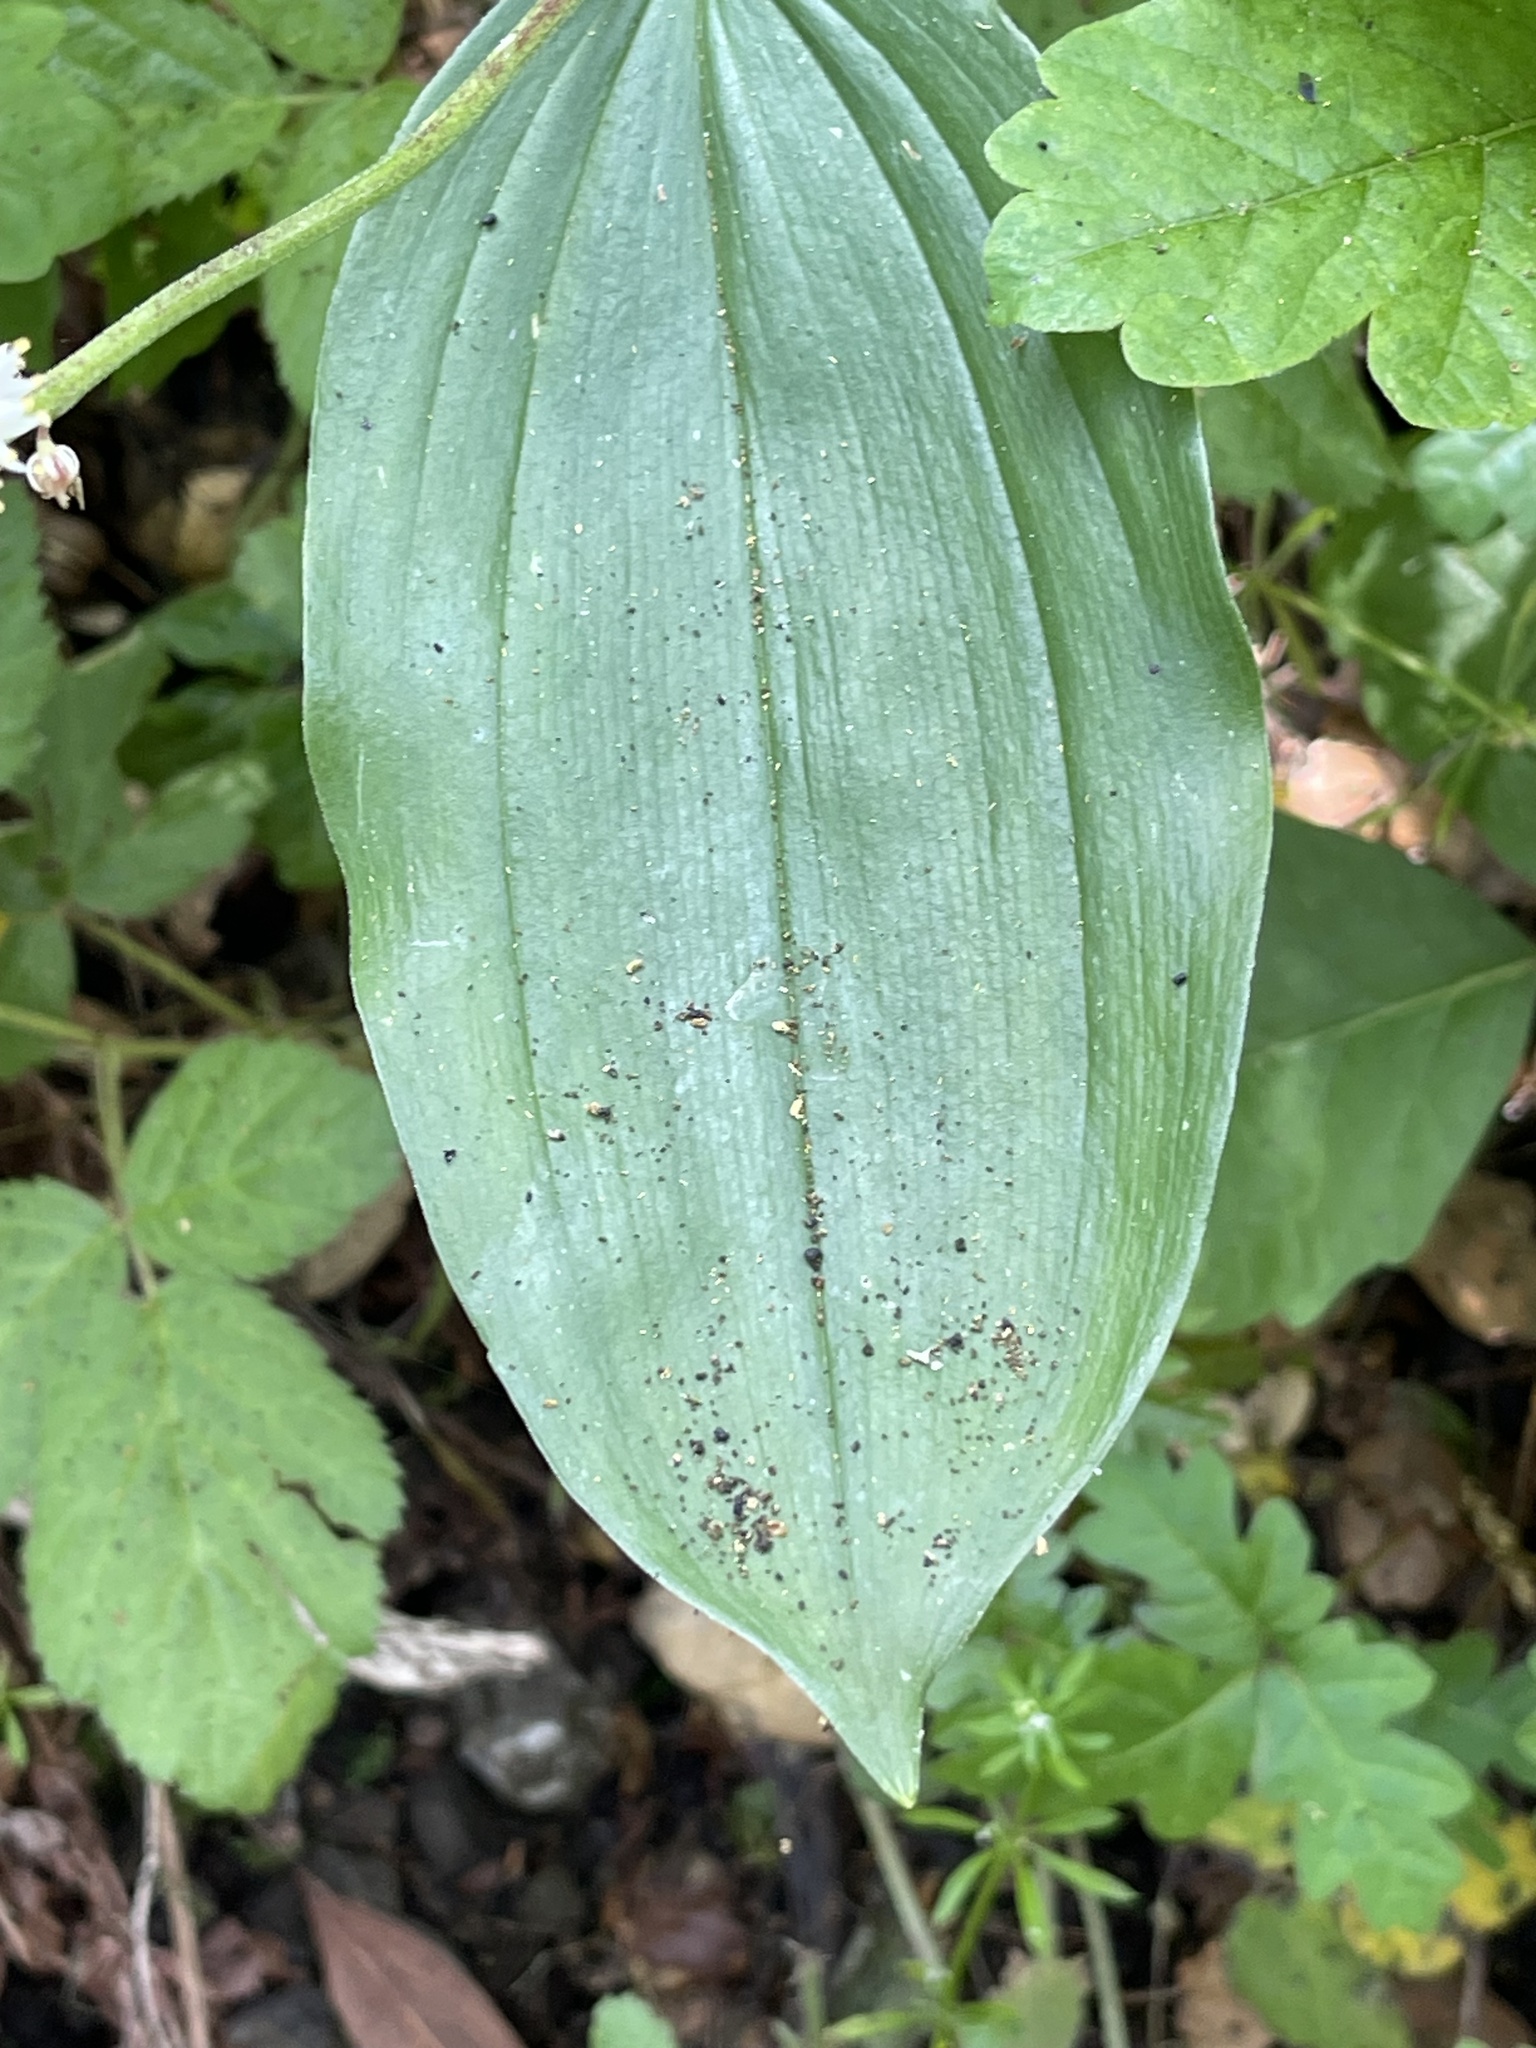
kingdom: Plantae
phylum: Tracheophyta
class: Liliopsida
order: Asparagales
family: Asparagaceae
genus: Maianthemum
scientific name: Maianthemum racemosum
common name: False spikenard
